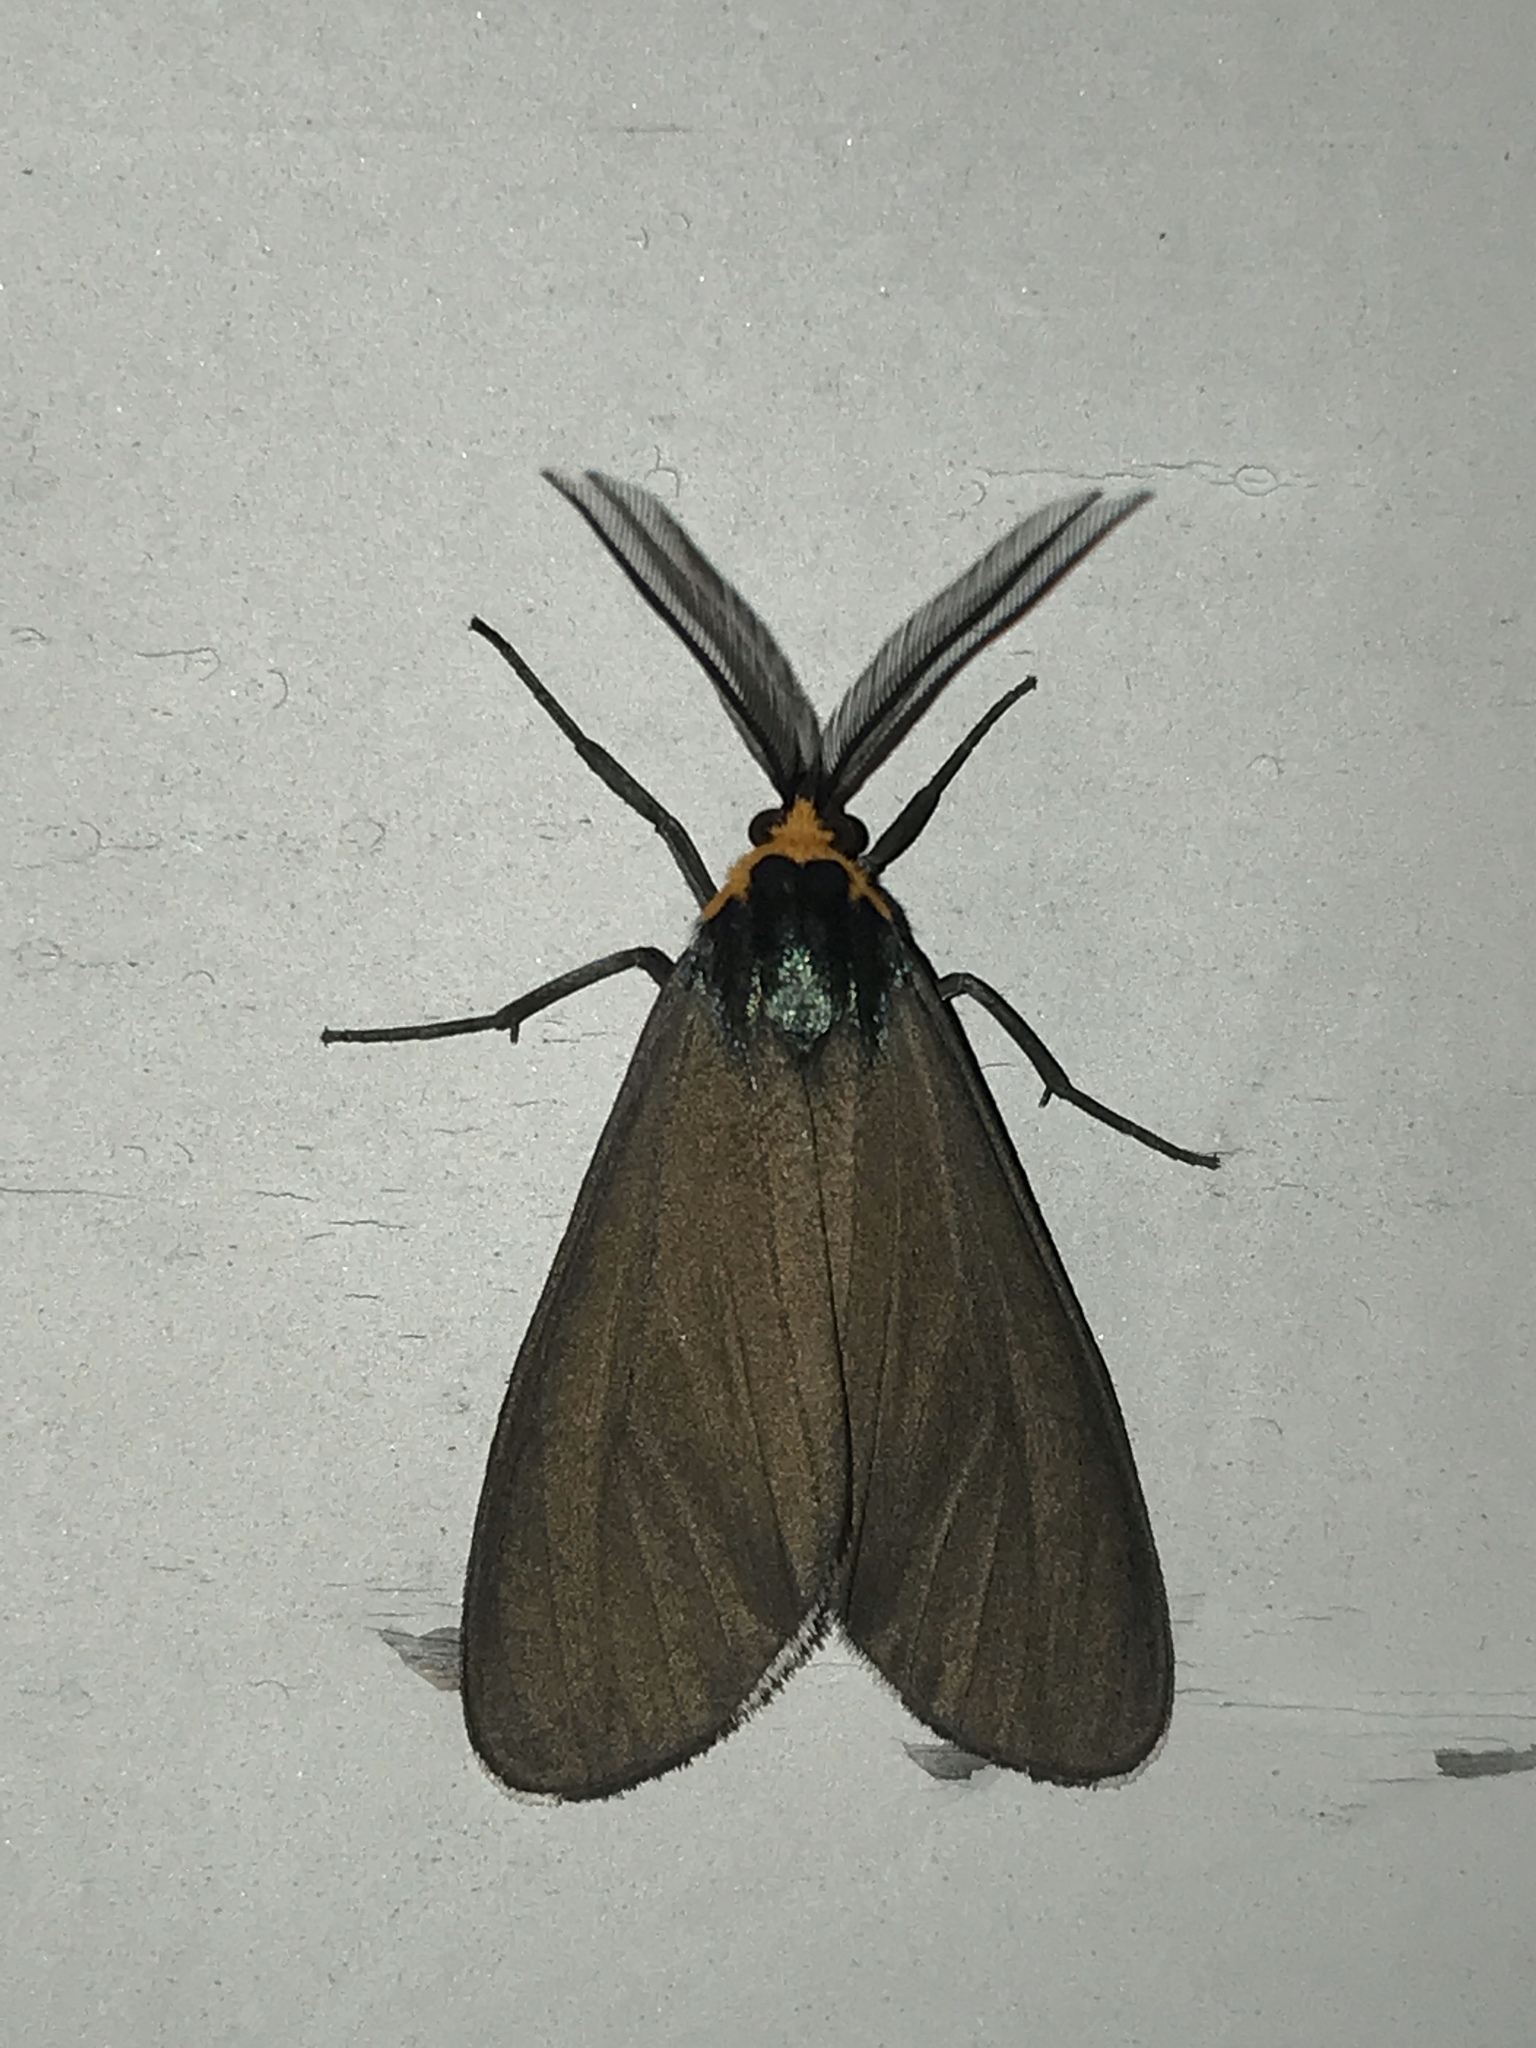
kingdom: Animalia
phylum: Arthropoda
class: Insecta
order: Lepidoptera
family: Erebidae
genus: Ctenucha
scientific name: Ctenucha virginica
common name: Virginia ctenucha moth
